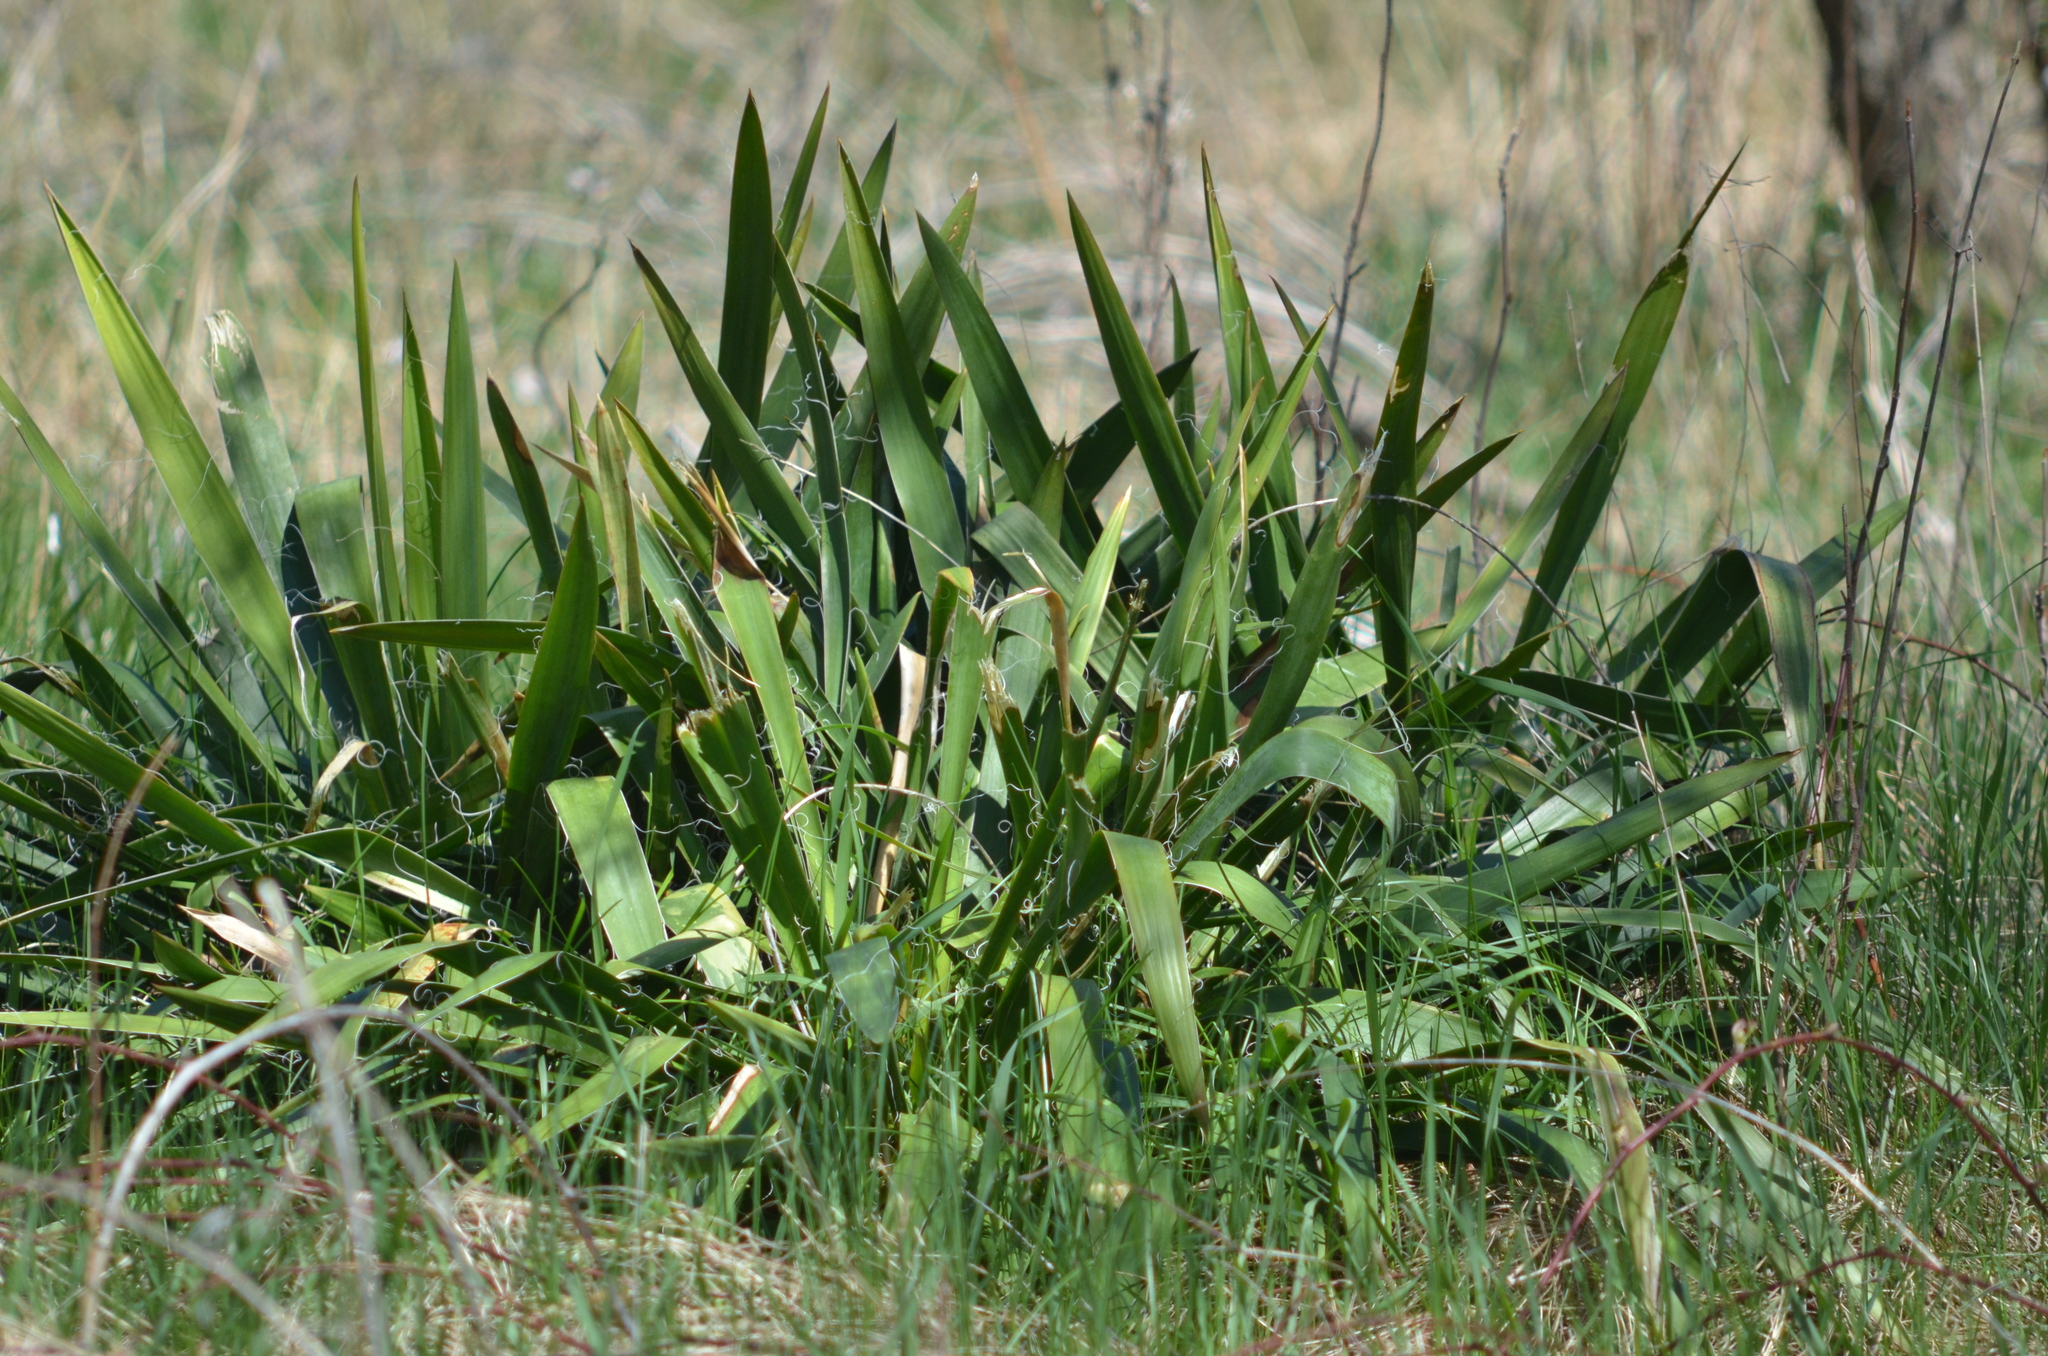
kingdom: Plantae
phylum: Tracheophyta
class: Liliopsida
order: Asparagales
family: Asparagaceae
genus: Yucca
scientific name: Yucca filamentosa
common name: Adam's-needle
